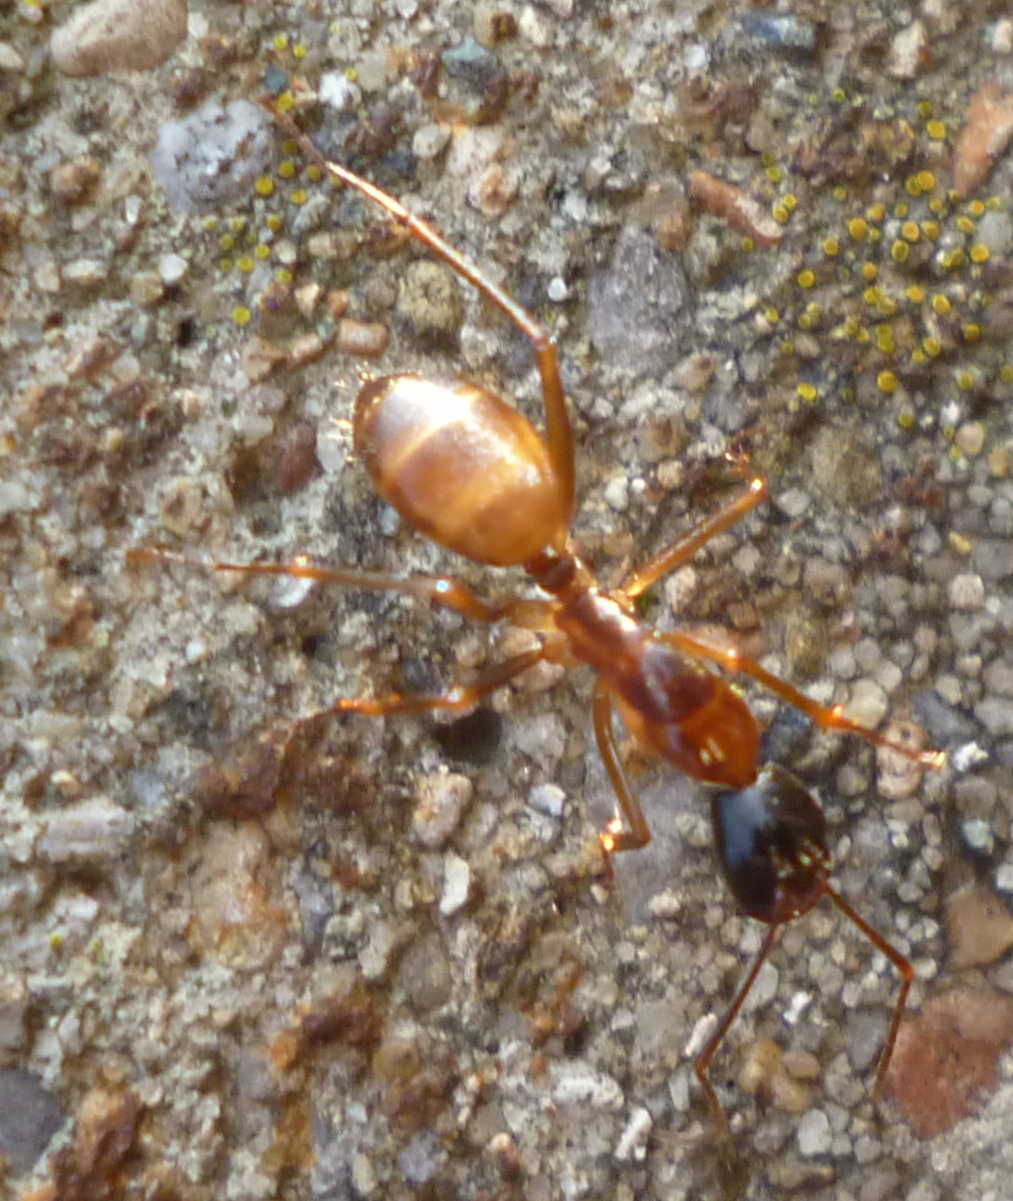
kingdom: Animalia
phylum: Arthropoda
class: Insecta
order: Hymenoptera
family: Formicidae
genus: Camponotus
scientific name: Camponotus americanus
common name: American carpenter ant
